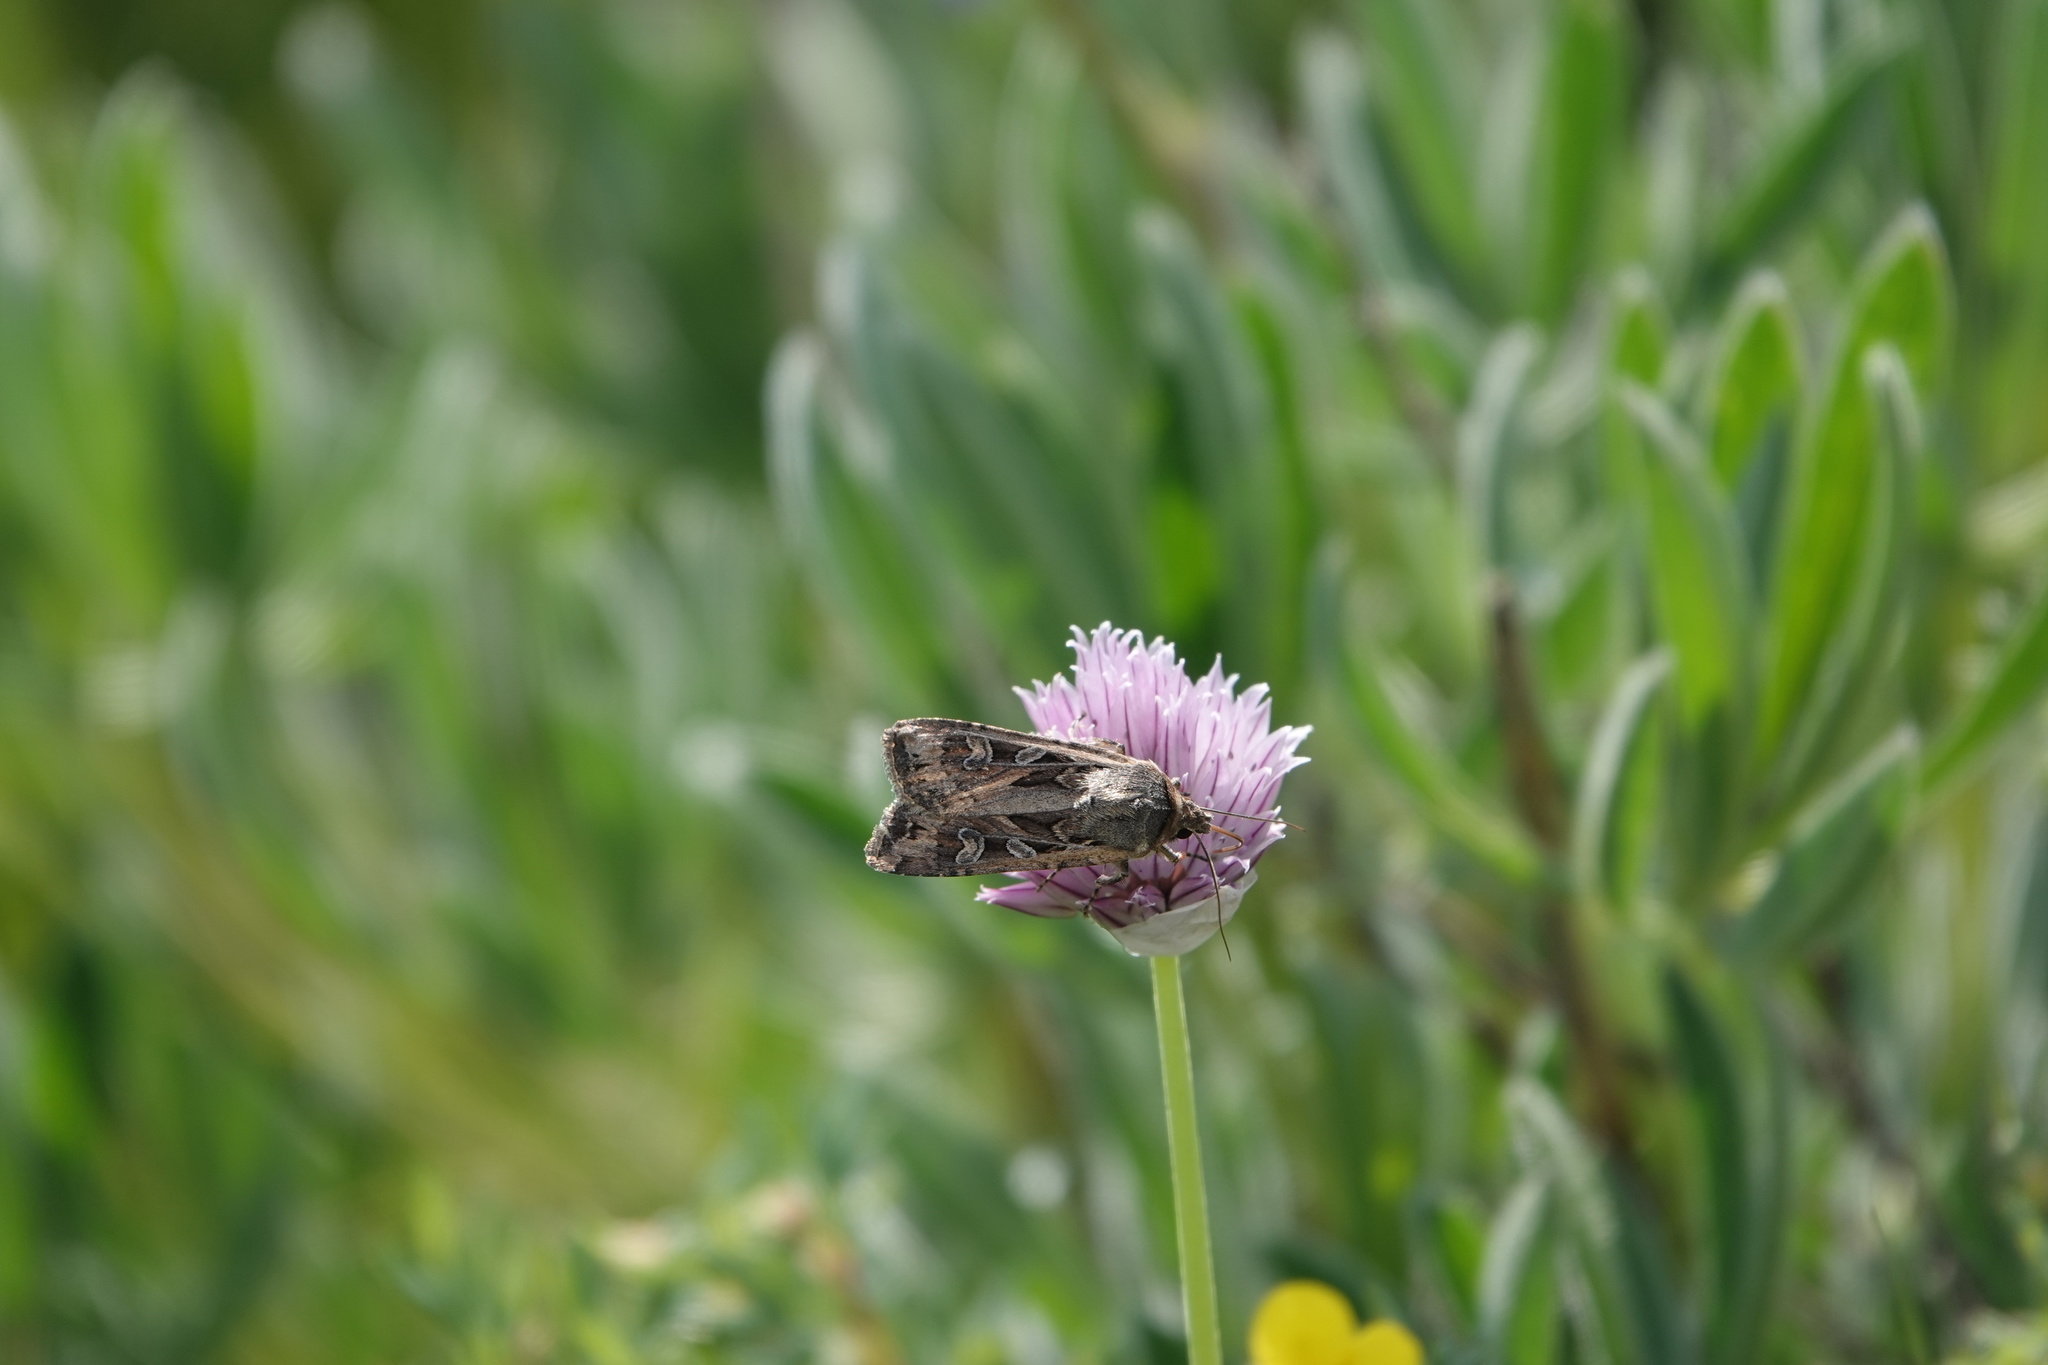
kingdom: Animalia
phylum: Arthropoda
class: Insecta
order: Lepidoptera
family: Noctuidae
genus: Euxoa
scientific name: Euxoa auxiliaris
